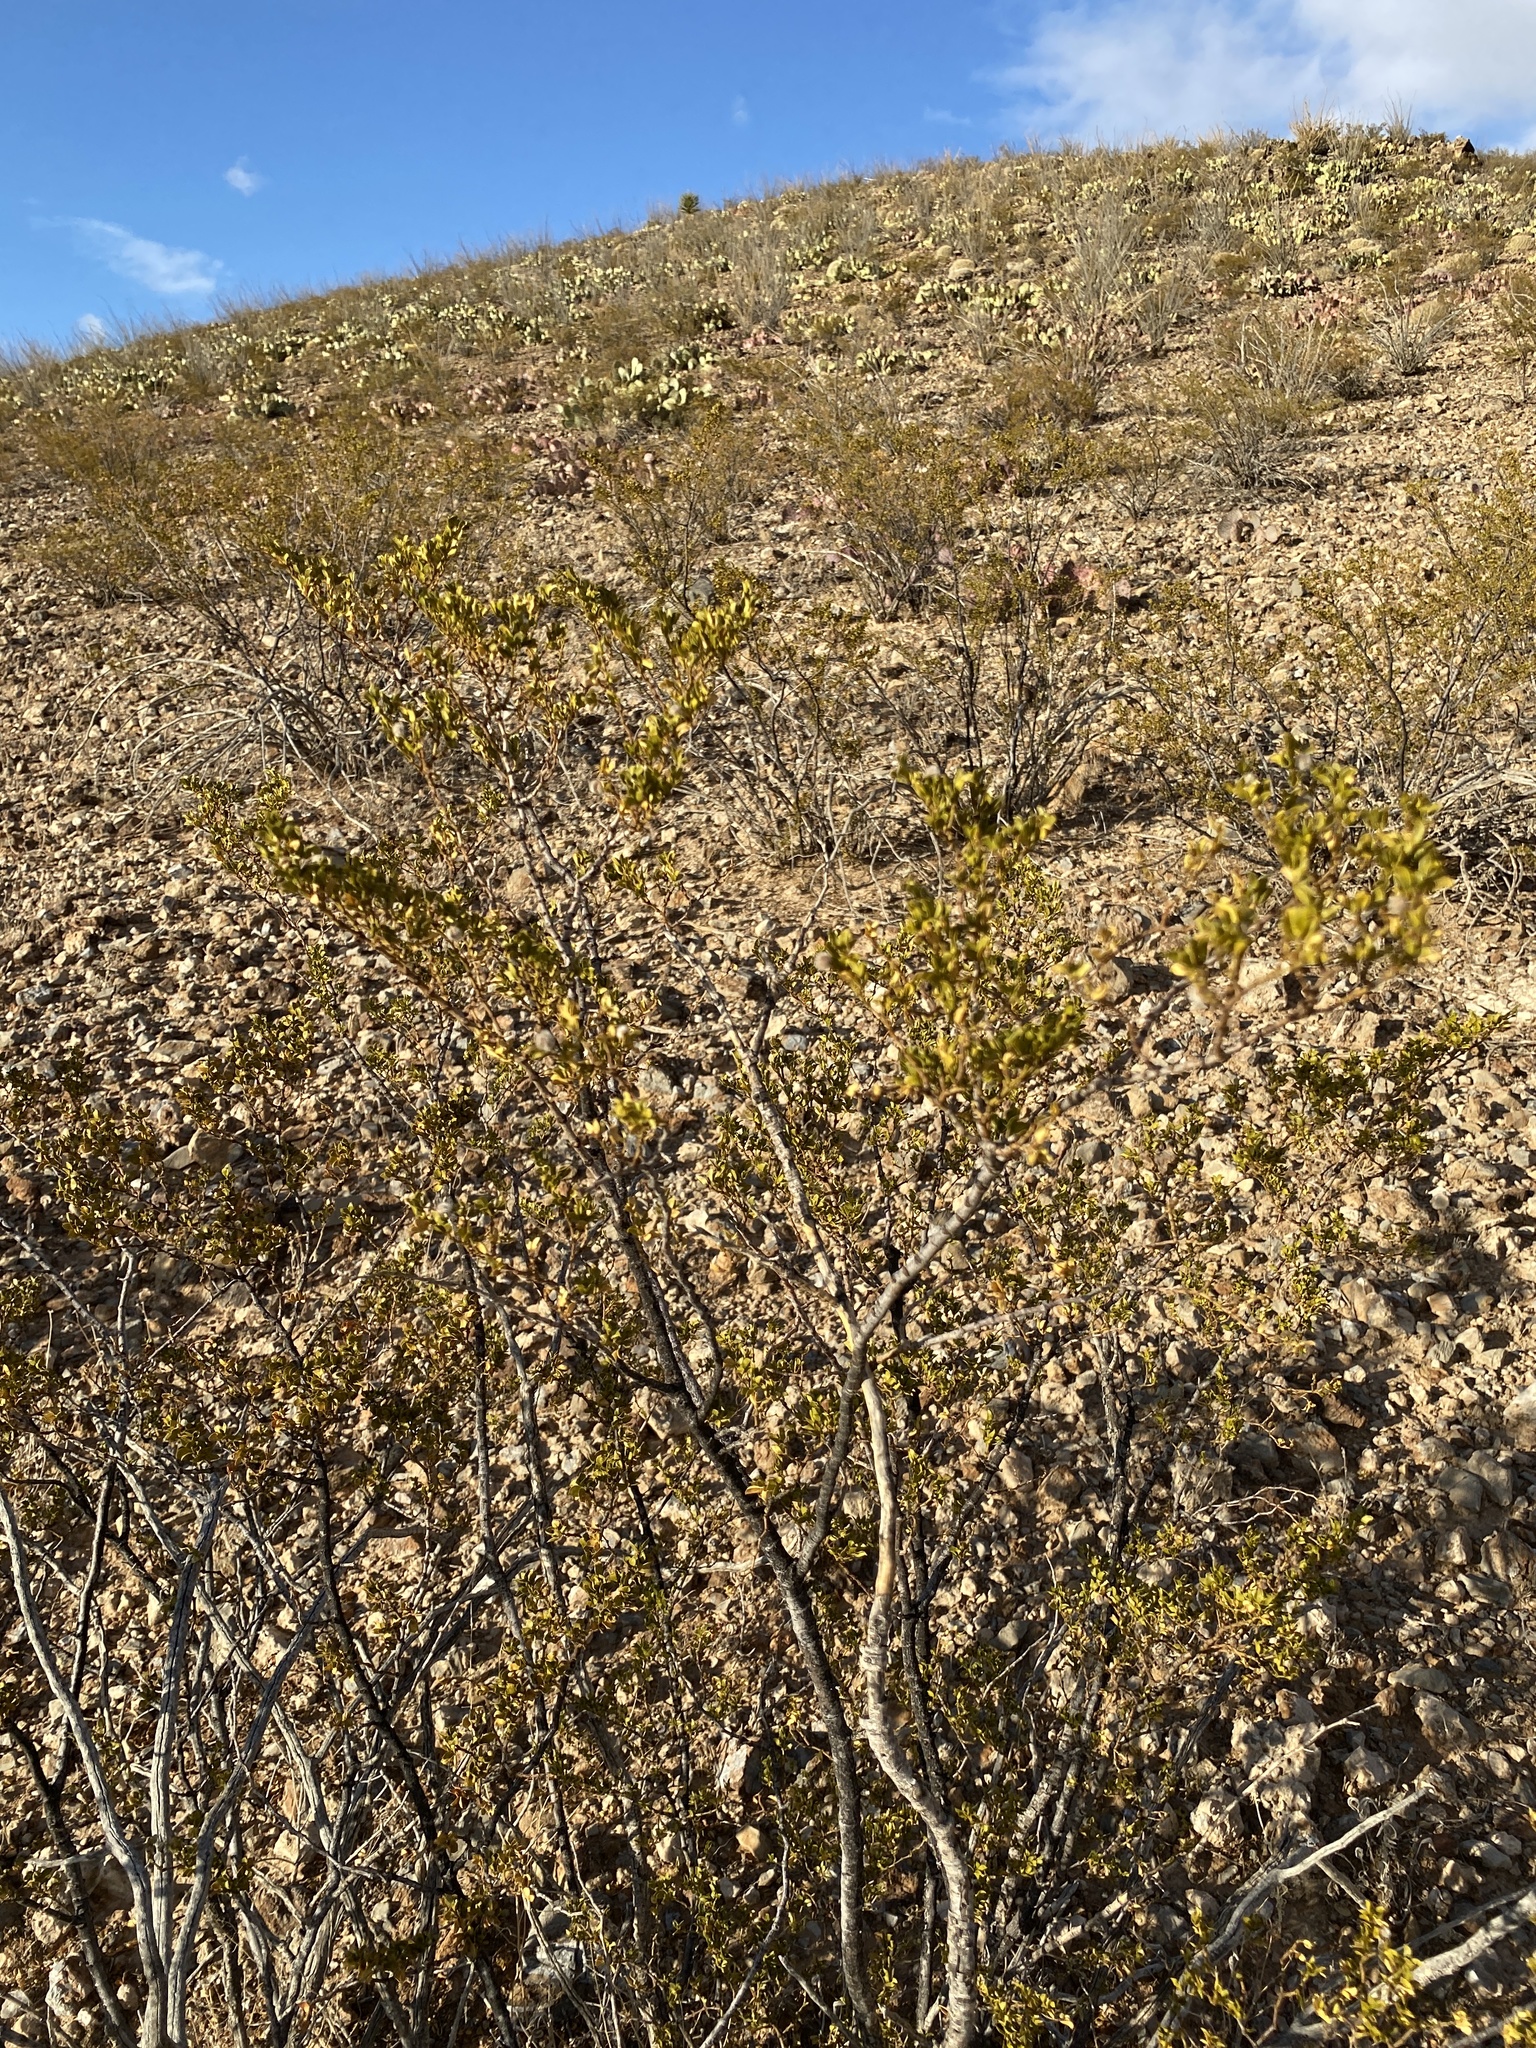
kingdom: Plantae
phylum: Tracheophyta
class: Magnoliopsida
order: Zygophyllales
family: Zygophyllaceae
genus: Larrea
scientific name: Larrea tridentata
